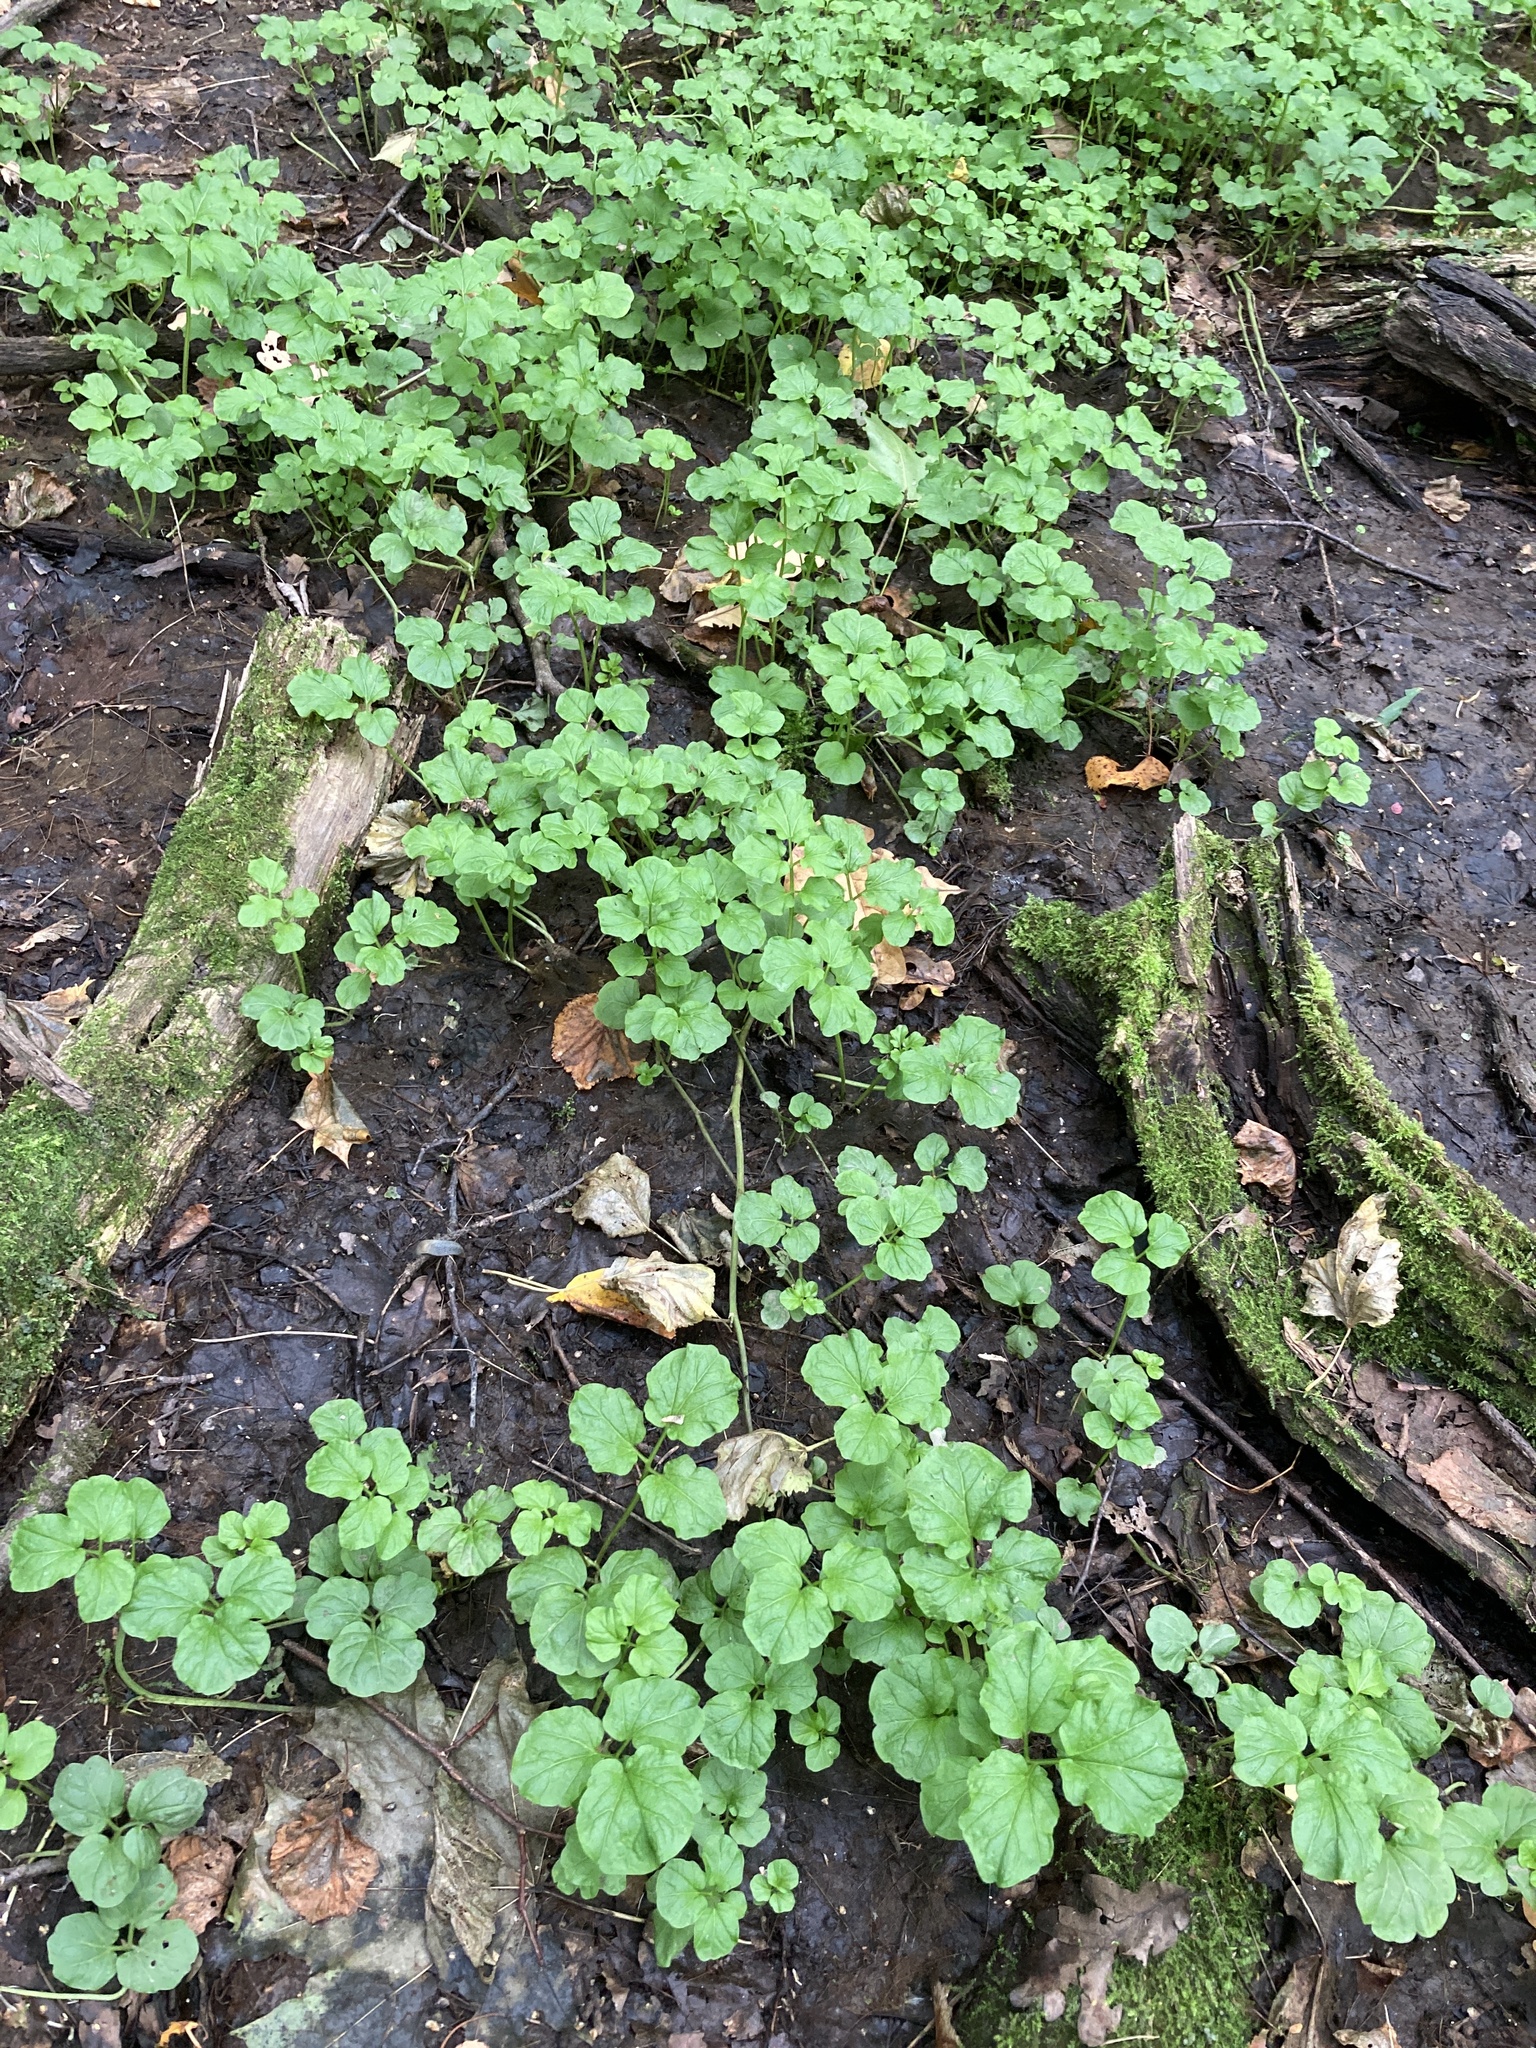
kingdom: Plantae
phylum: Tracheophyta
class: Magnoliopsida
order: Brassicales
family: Brassicaceae
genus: Cardamine
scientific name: Cardamine amara
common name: Large bitter-cress
